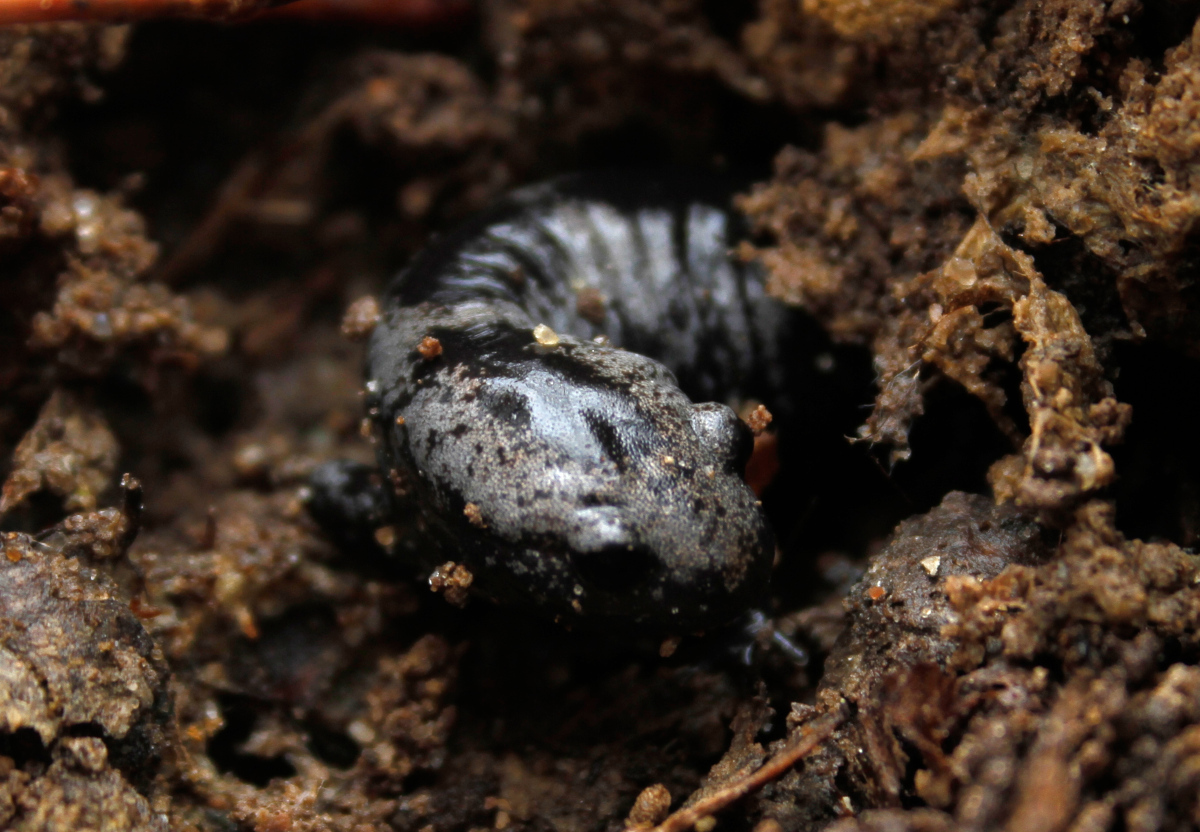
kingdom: Animalia
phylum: Chordata
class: Amphibia
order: Caudata
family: Ambystomatidae
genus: Ambystoma
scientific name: Ambystoma opacum
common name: Marbled salamander
